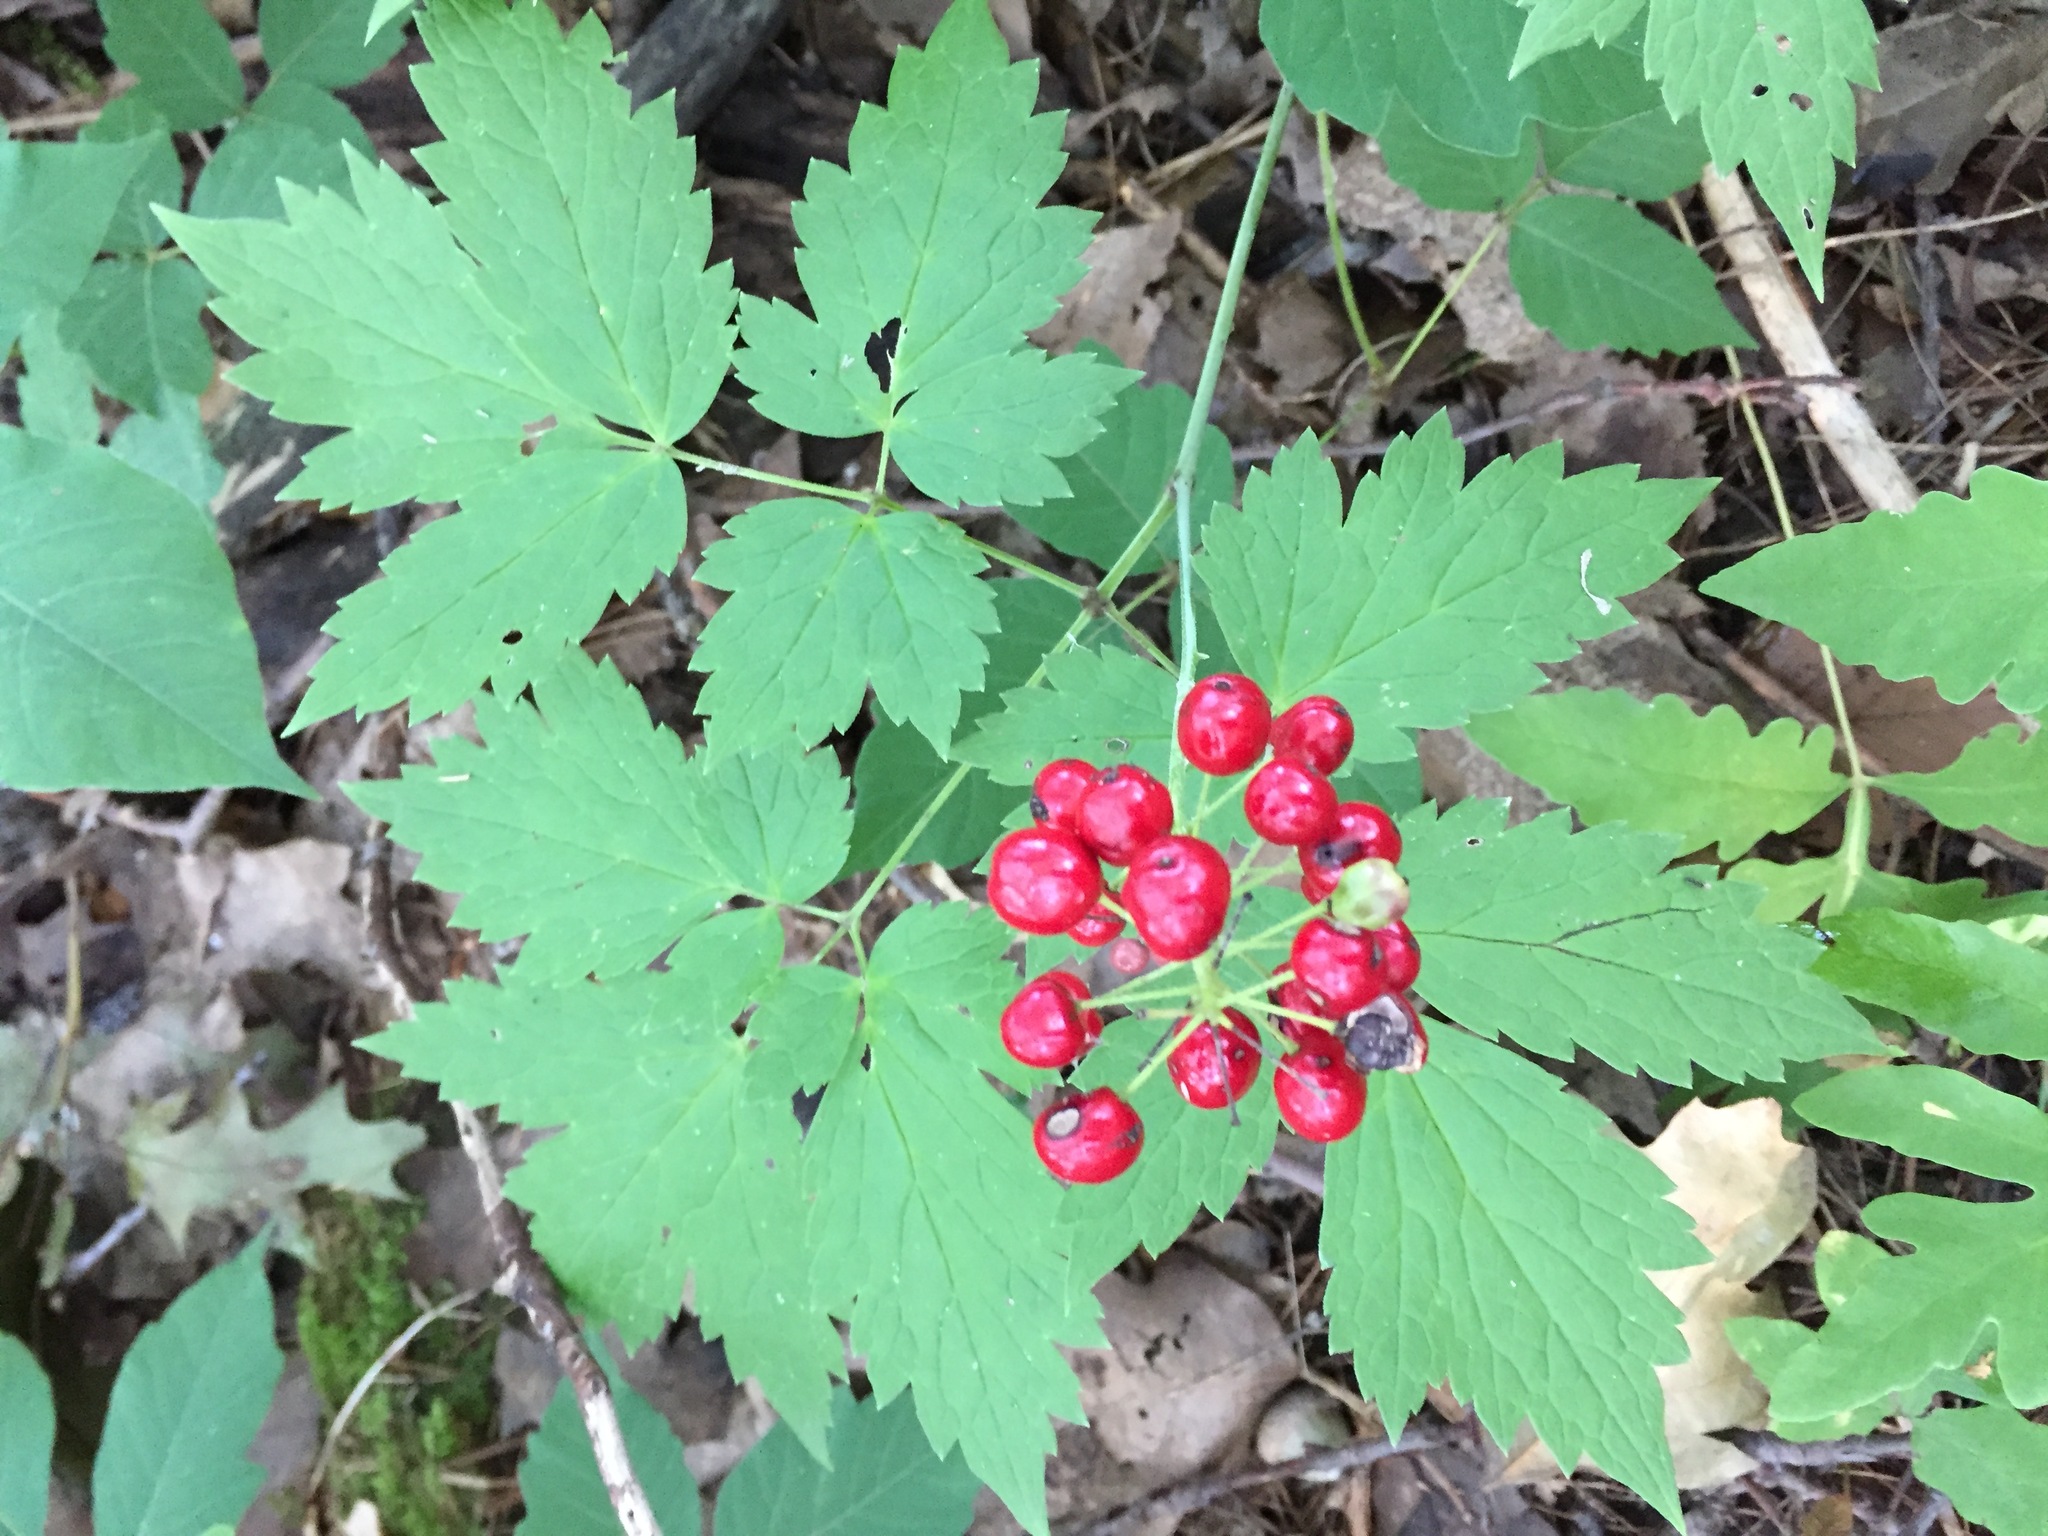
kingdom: Plantae
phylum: Tracheophyta
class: Magnoliopsida
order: Ranunculales
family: Ranunculaceae
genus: Actaea
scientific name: Actaea rubra
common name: Red baneberry
